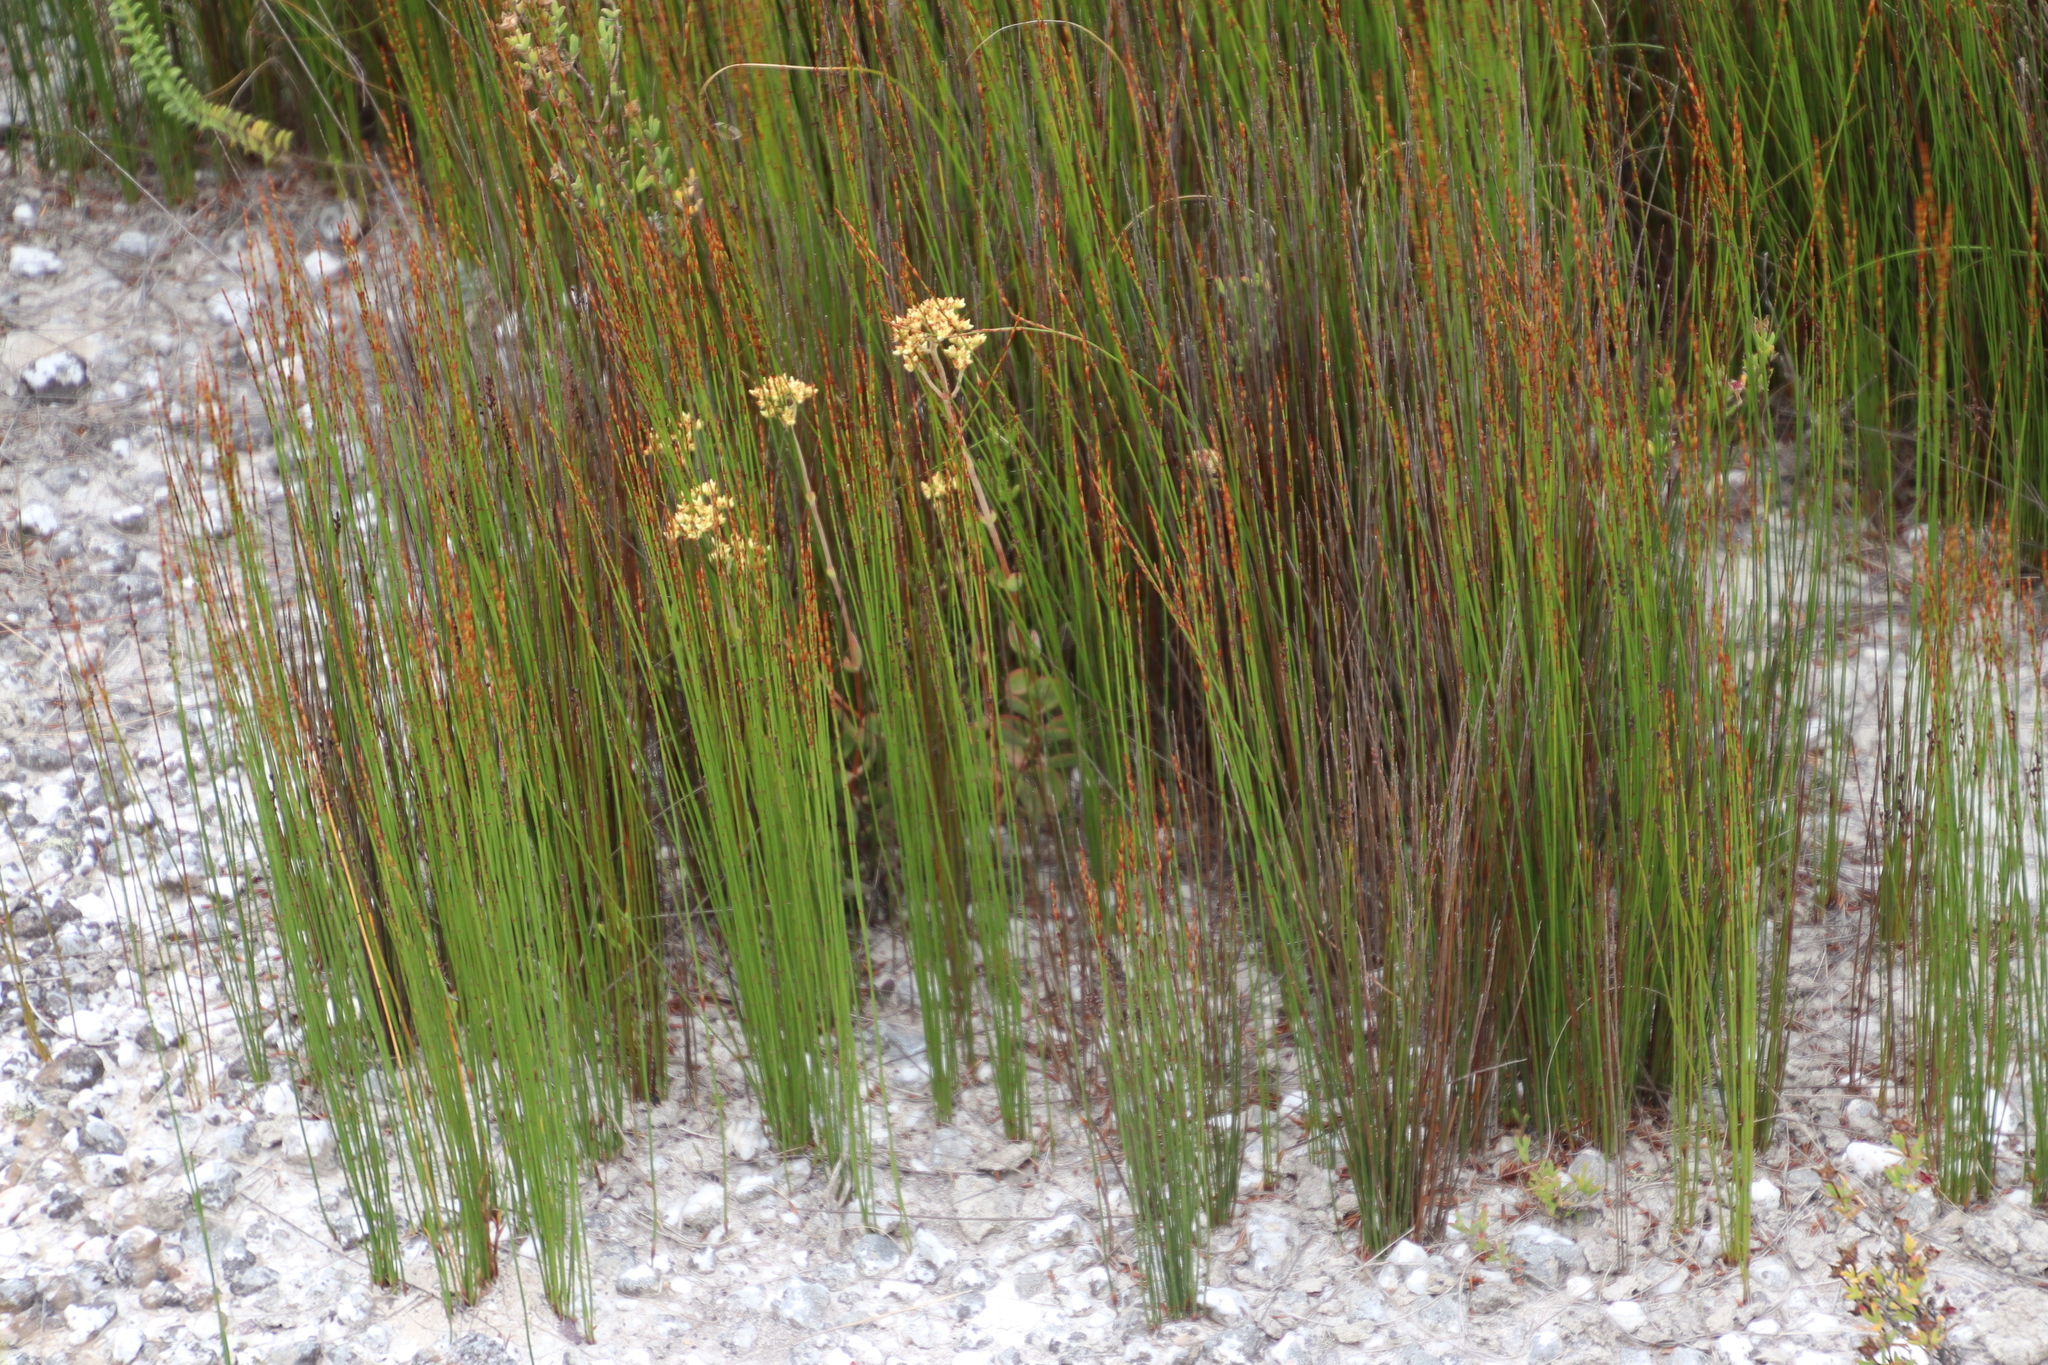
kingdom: Plantae
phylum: Tracheophyta
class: Magnoliopsida
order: Saxifragales
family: Crassulaceae
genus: Crassula
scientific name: Crassula atropurpurea
